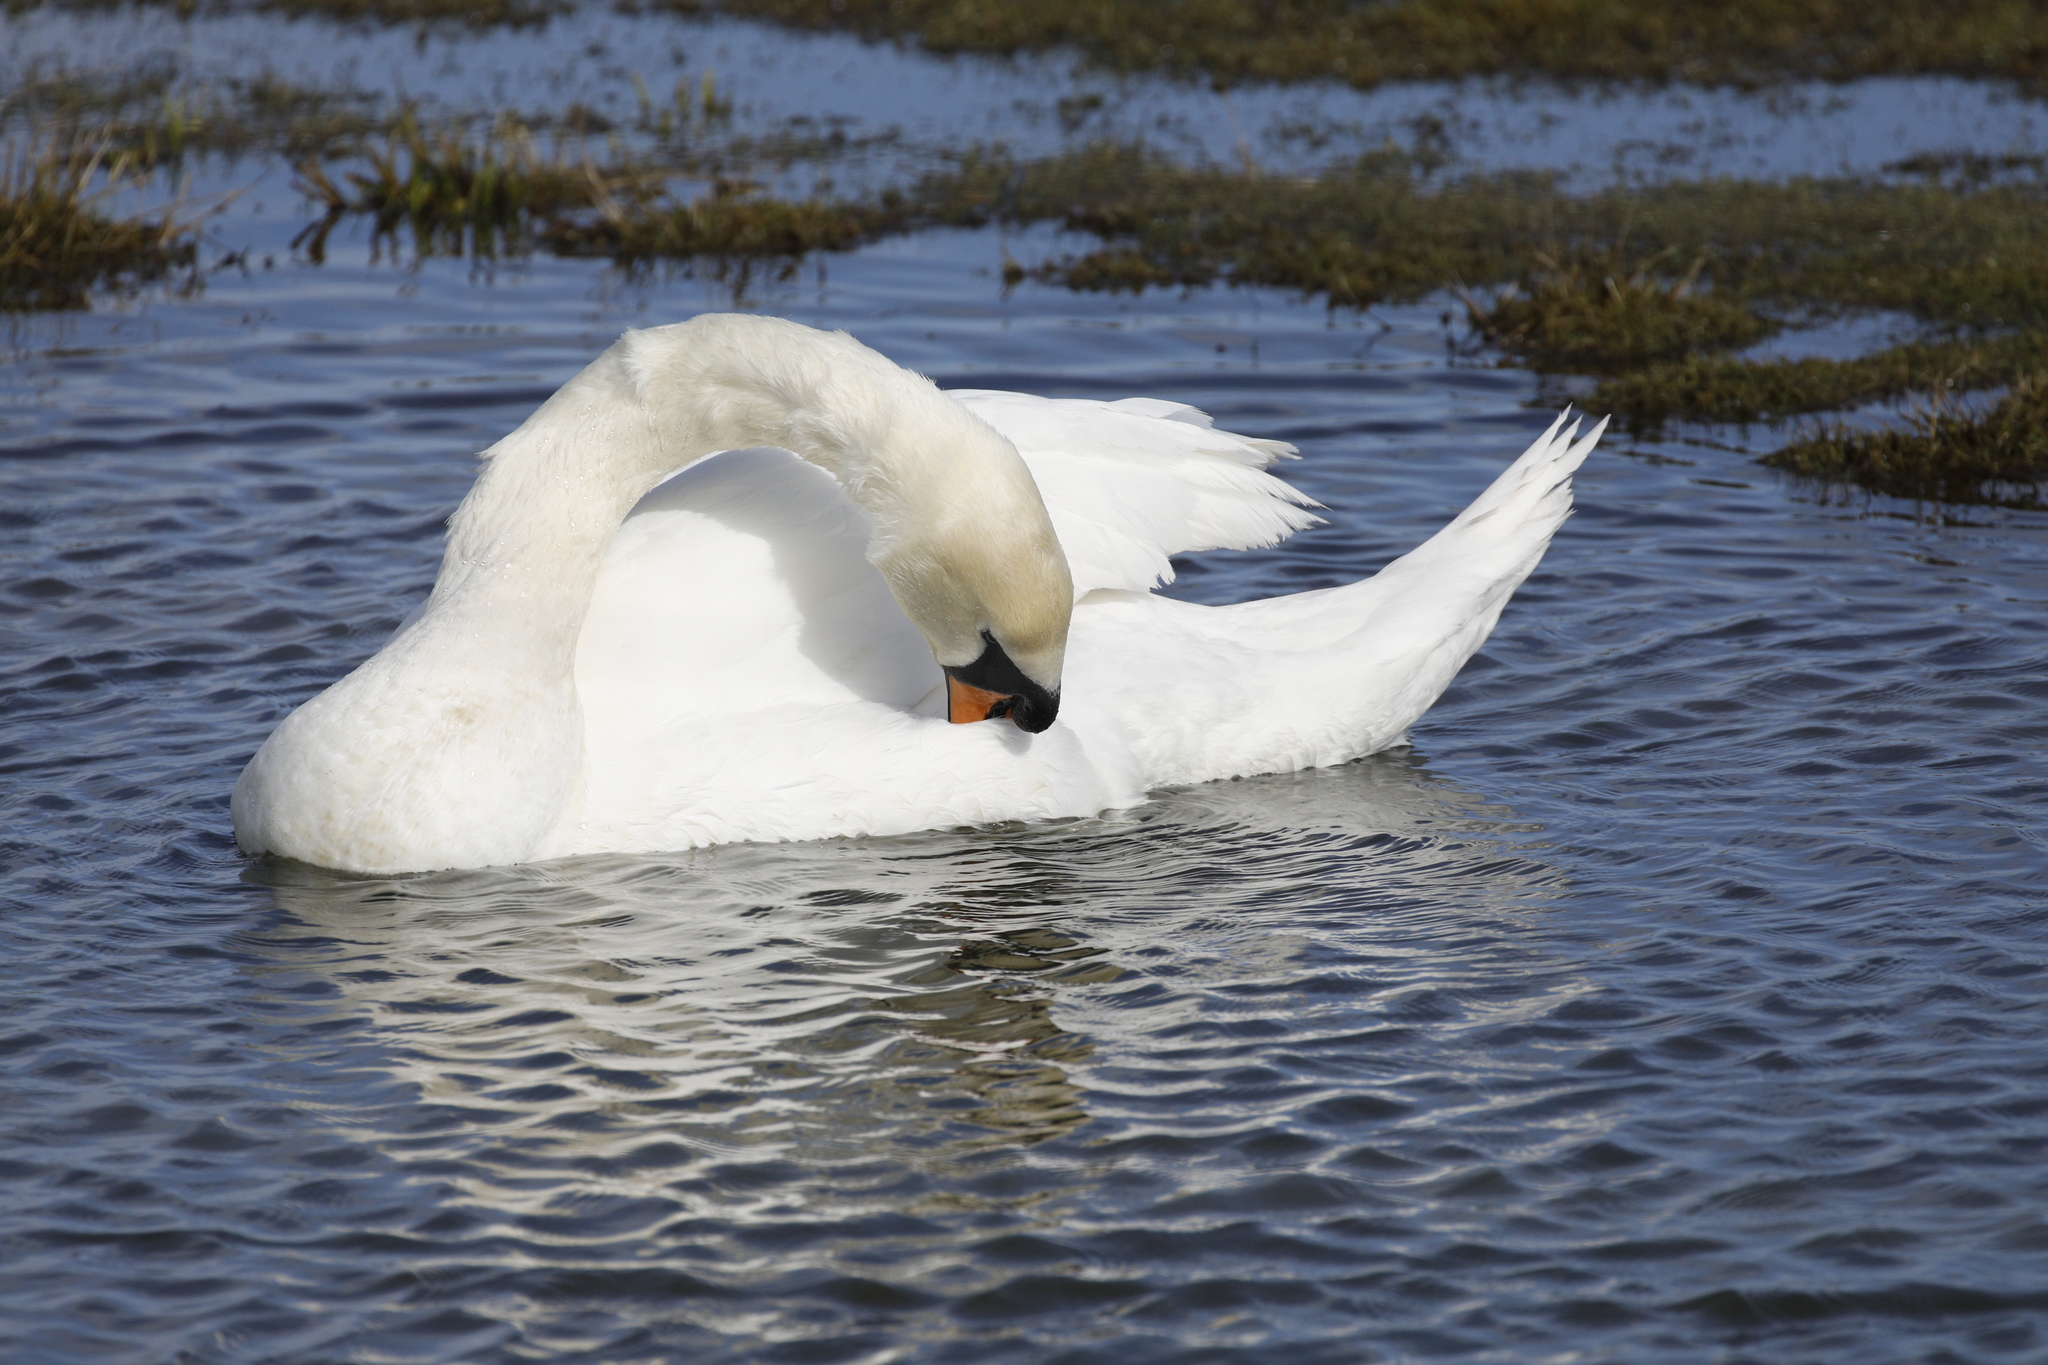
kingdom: Animalia
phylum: Chordata
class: Aves
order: Anseriformes
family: Anatidae
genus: Cygnus
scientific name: Cygnus olor
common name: Mute swan
